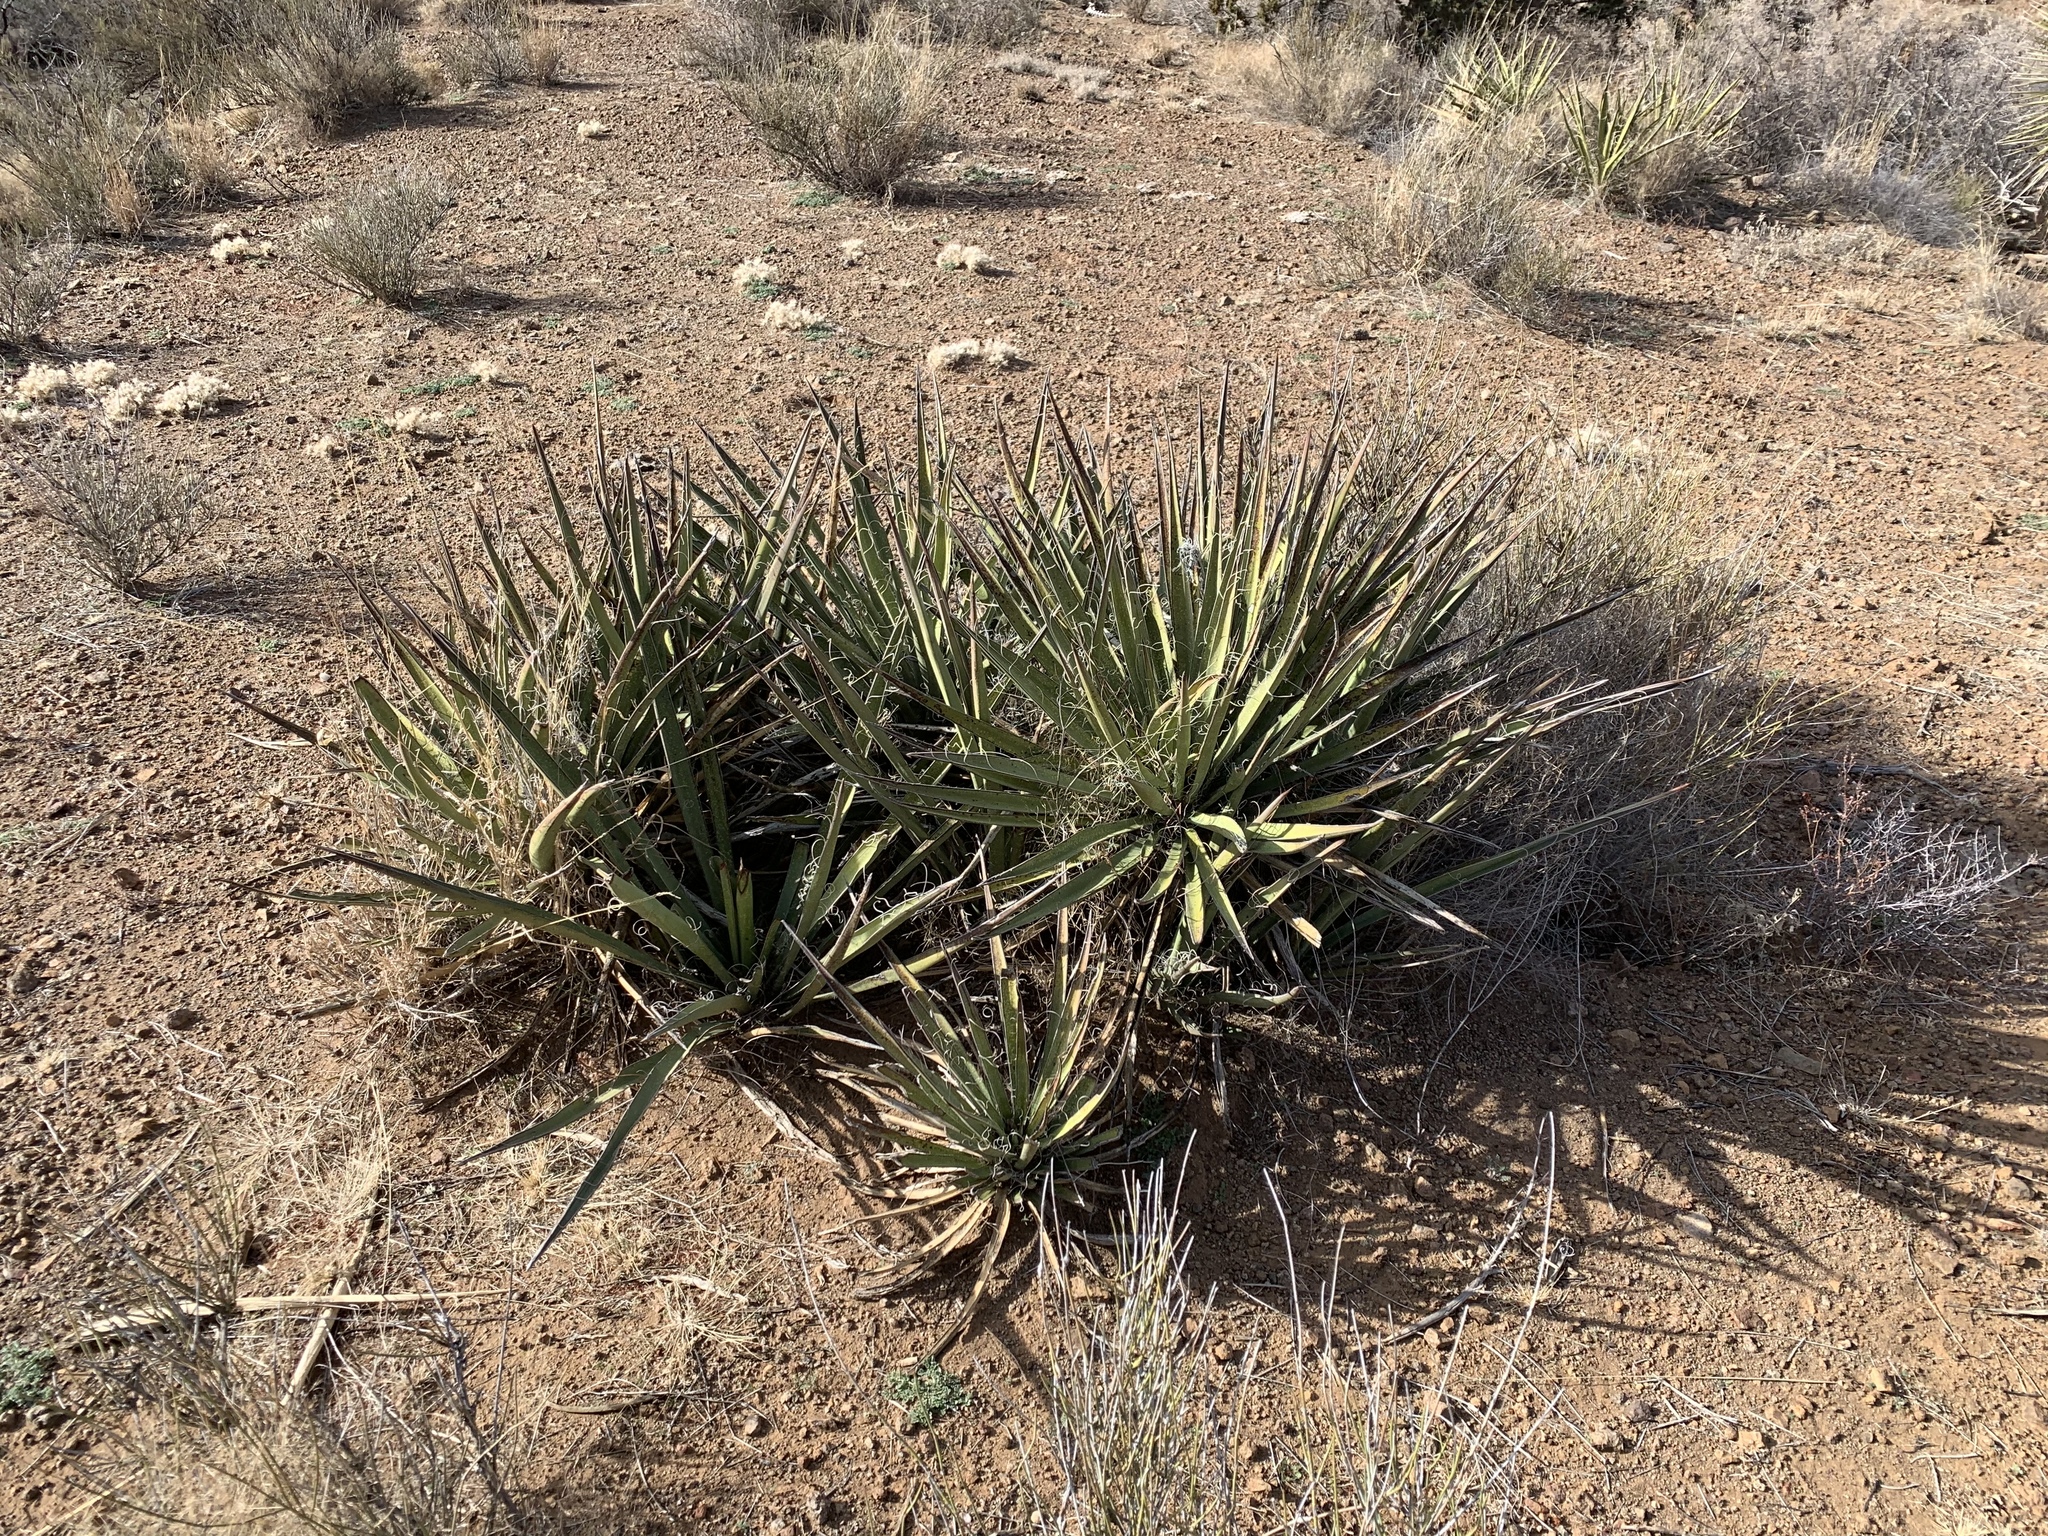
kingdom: Plantae
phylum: Tracheophyta
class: Liliopsida
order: Asparagales
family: Asparagaceae
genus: Yucca
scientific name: Yucca baccata
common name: Banana yucca
